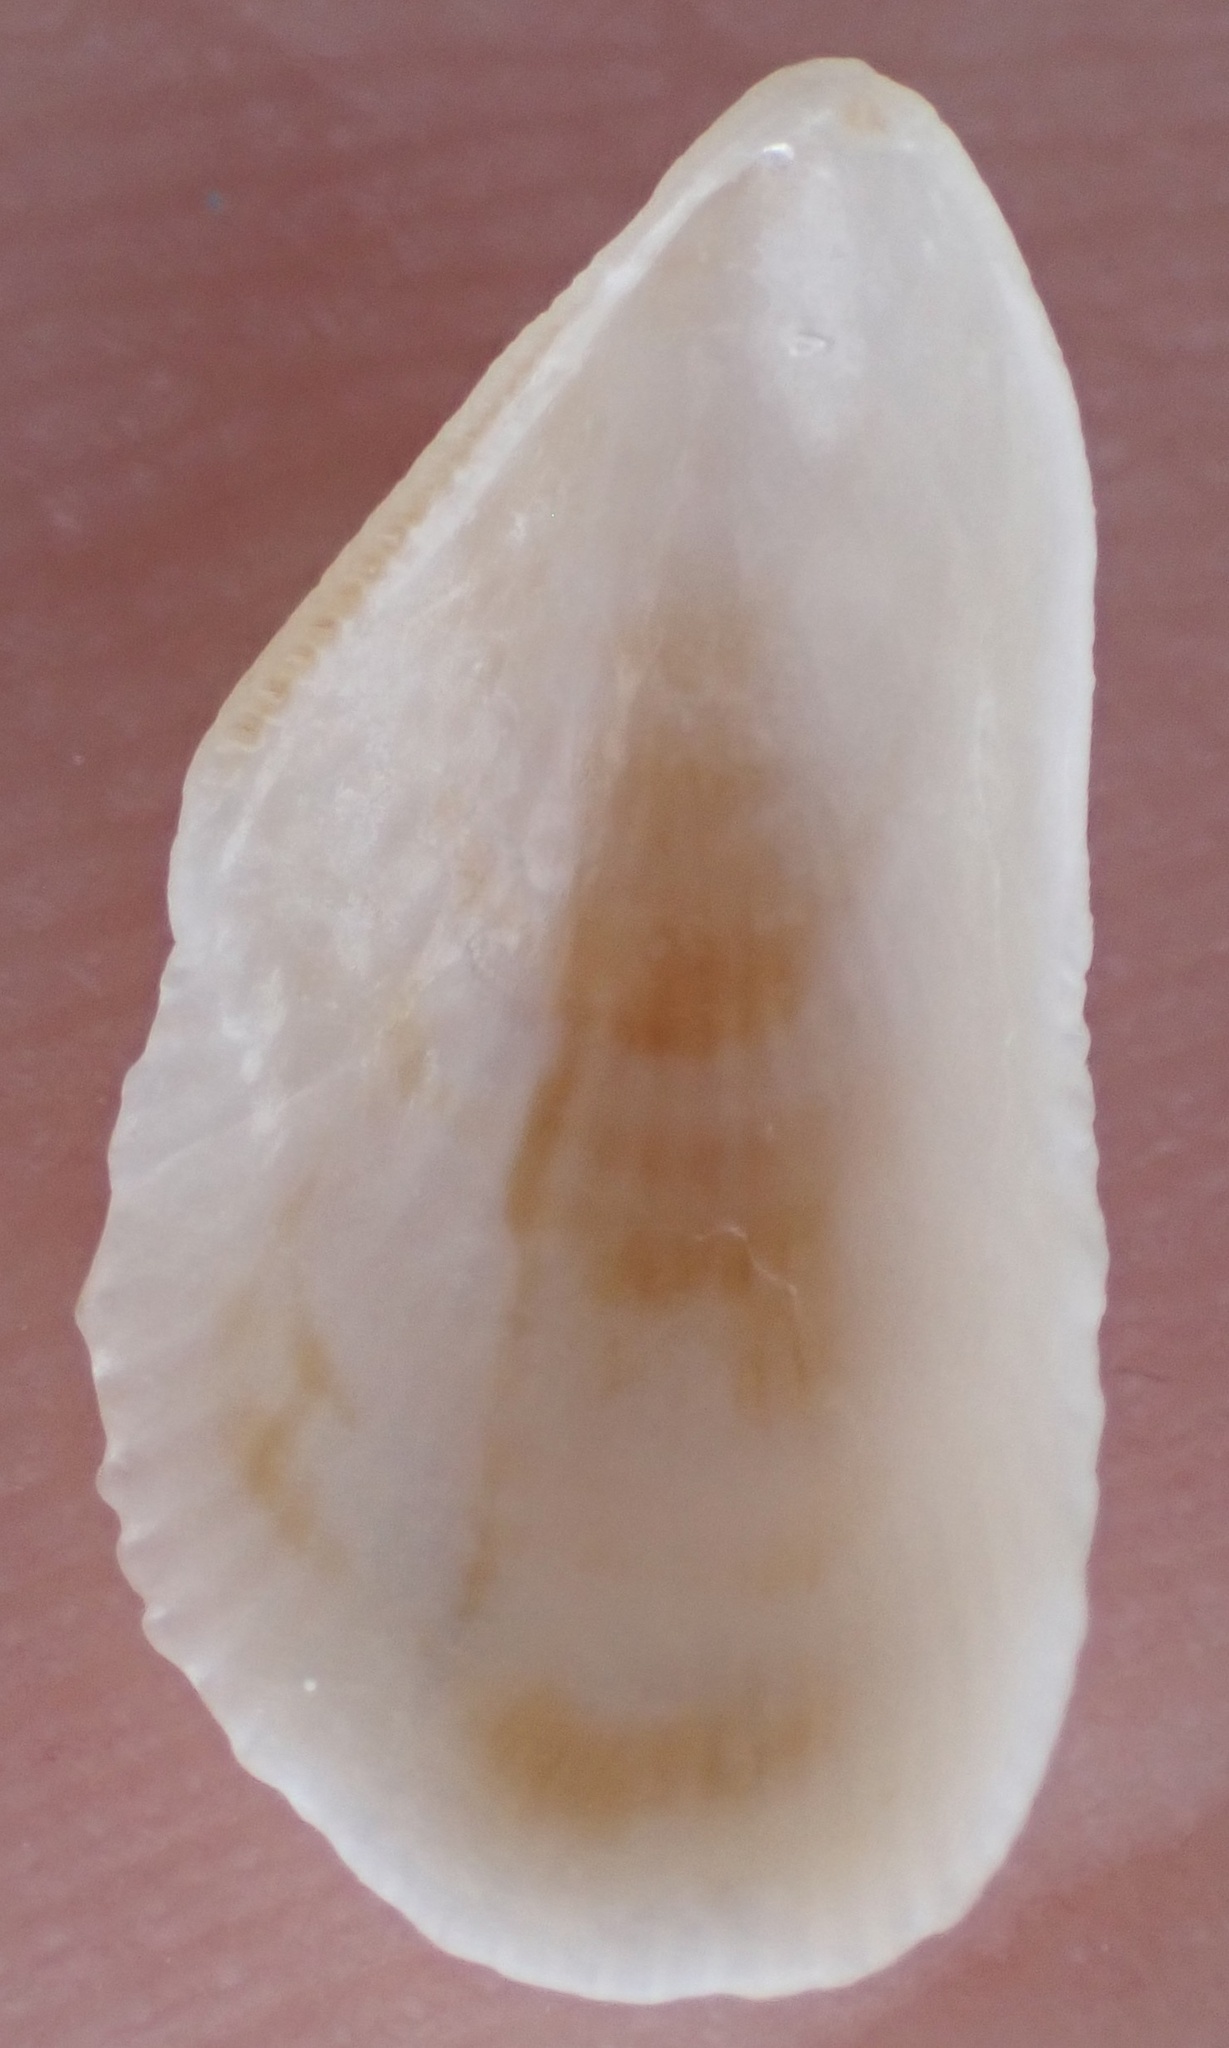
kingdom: Animalia
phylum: Mollusca
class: Bivalvia
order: Mytilida
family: Mytilidae
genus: Brachidontes
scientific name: Brachidontes exustus
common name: Scorched mussel
